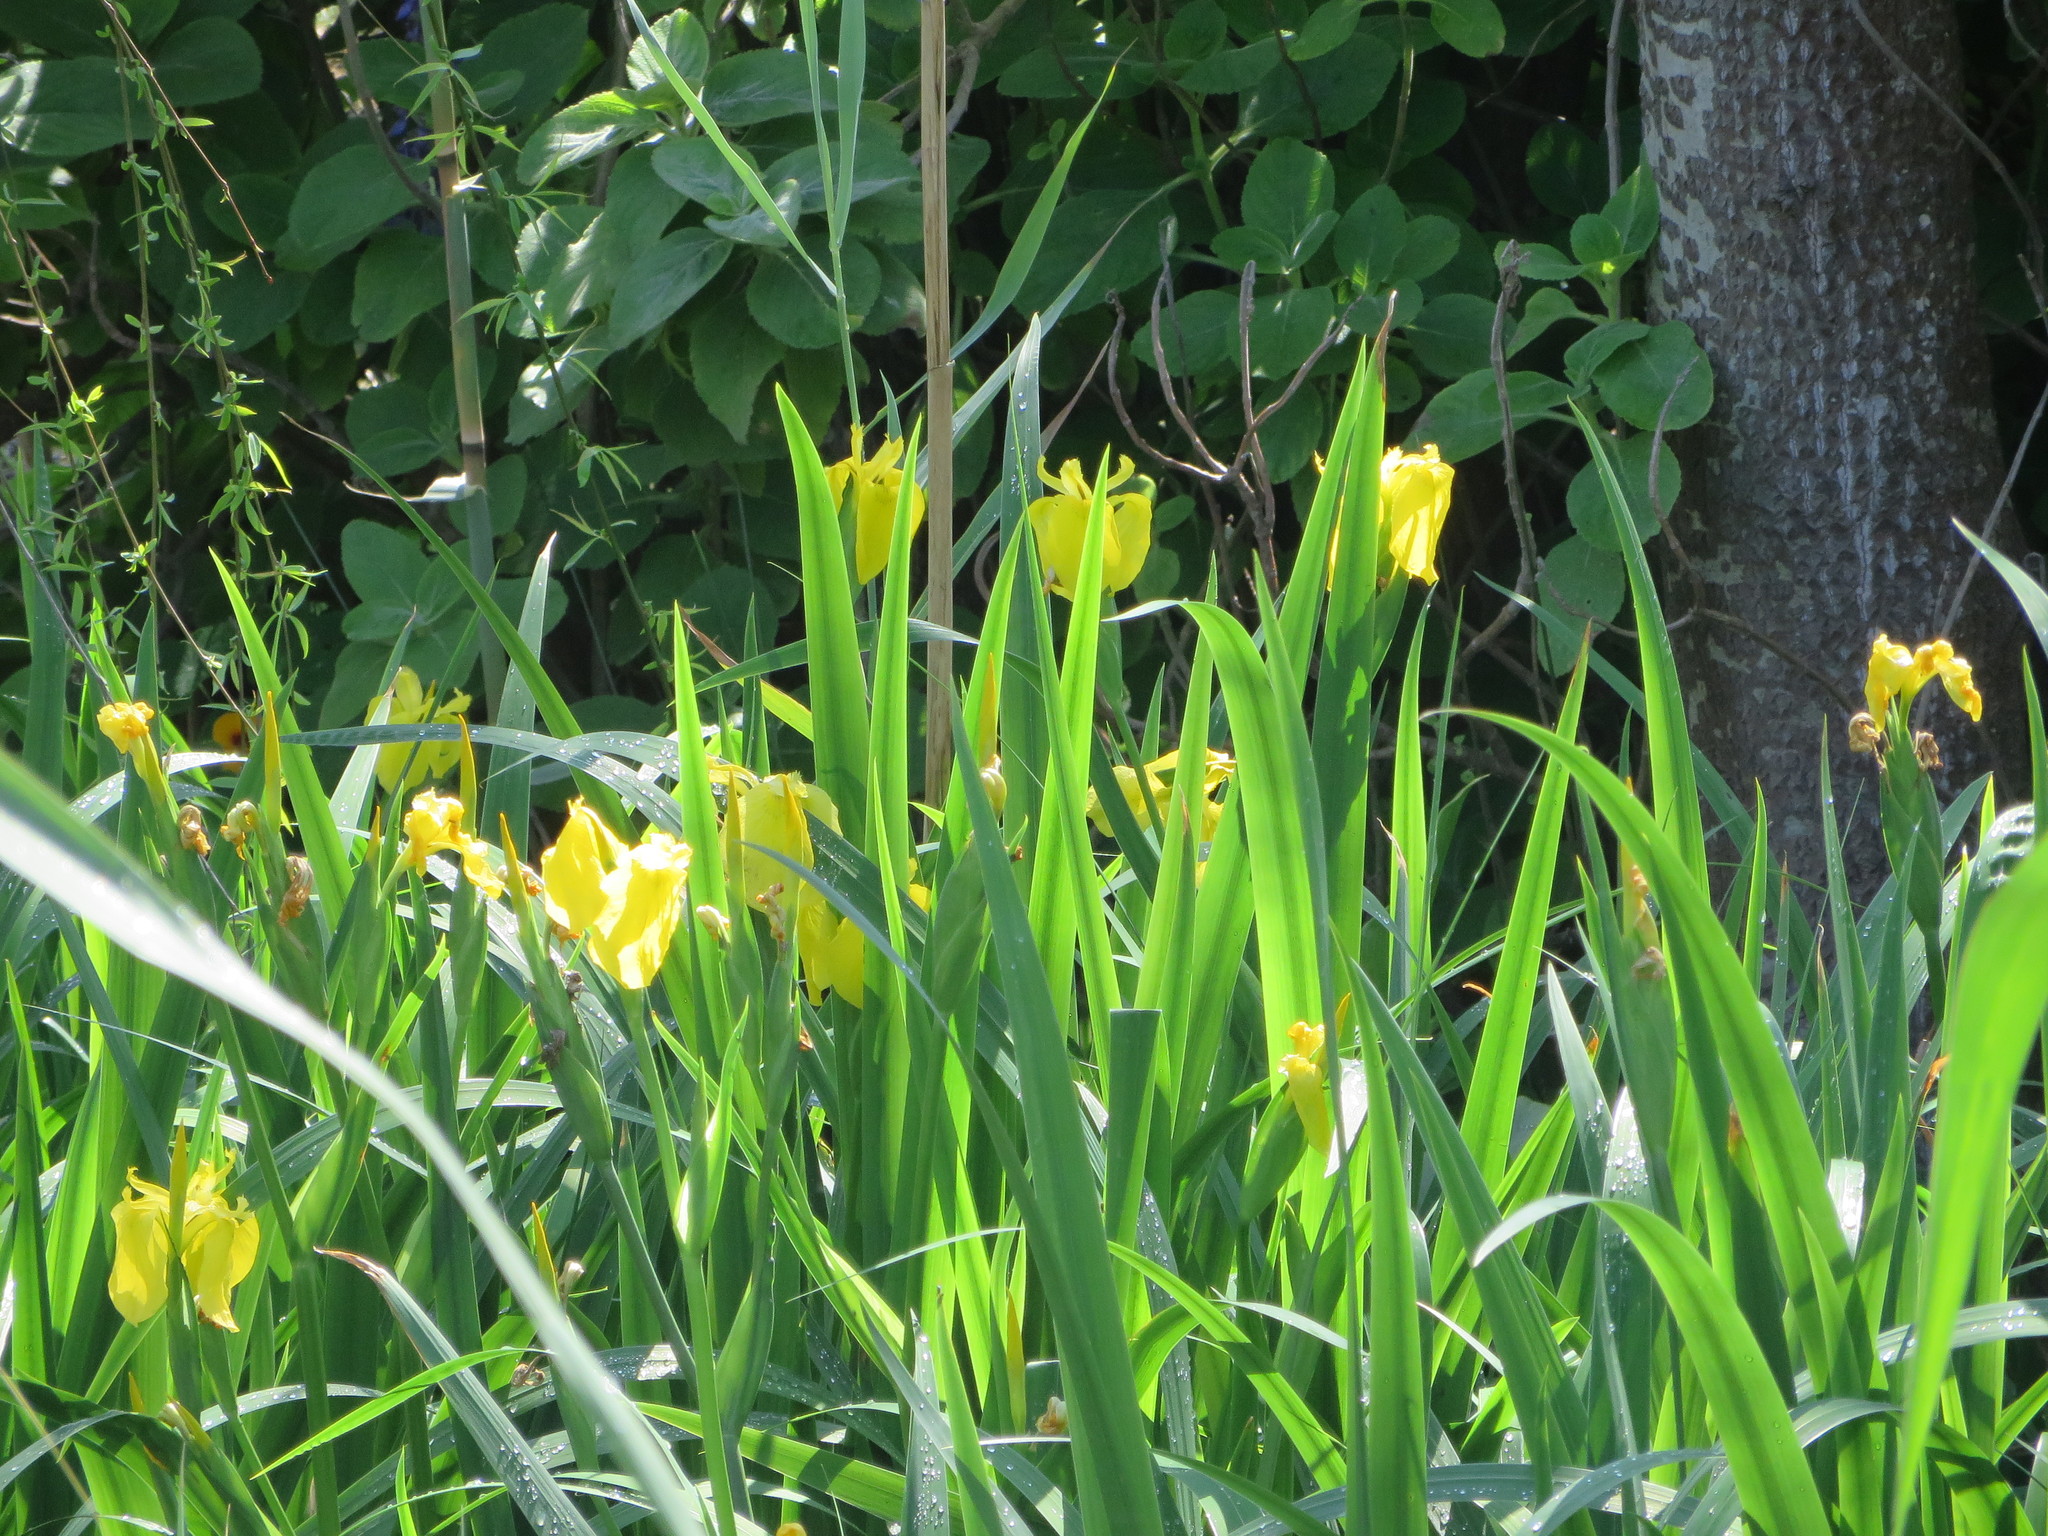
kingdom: Plantae
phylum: Tracheophyta
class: Liliopsida
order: Asparagales
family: Iridaceae
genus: Iris
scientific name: Iris pseudacorus
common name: Yellow flag
